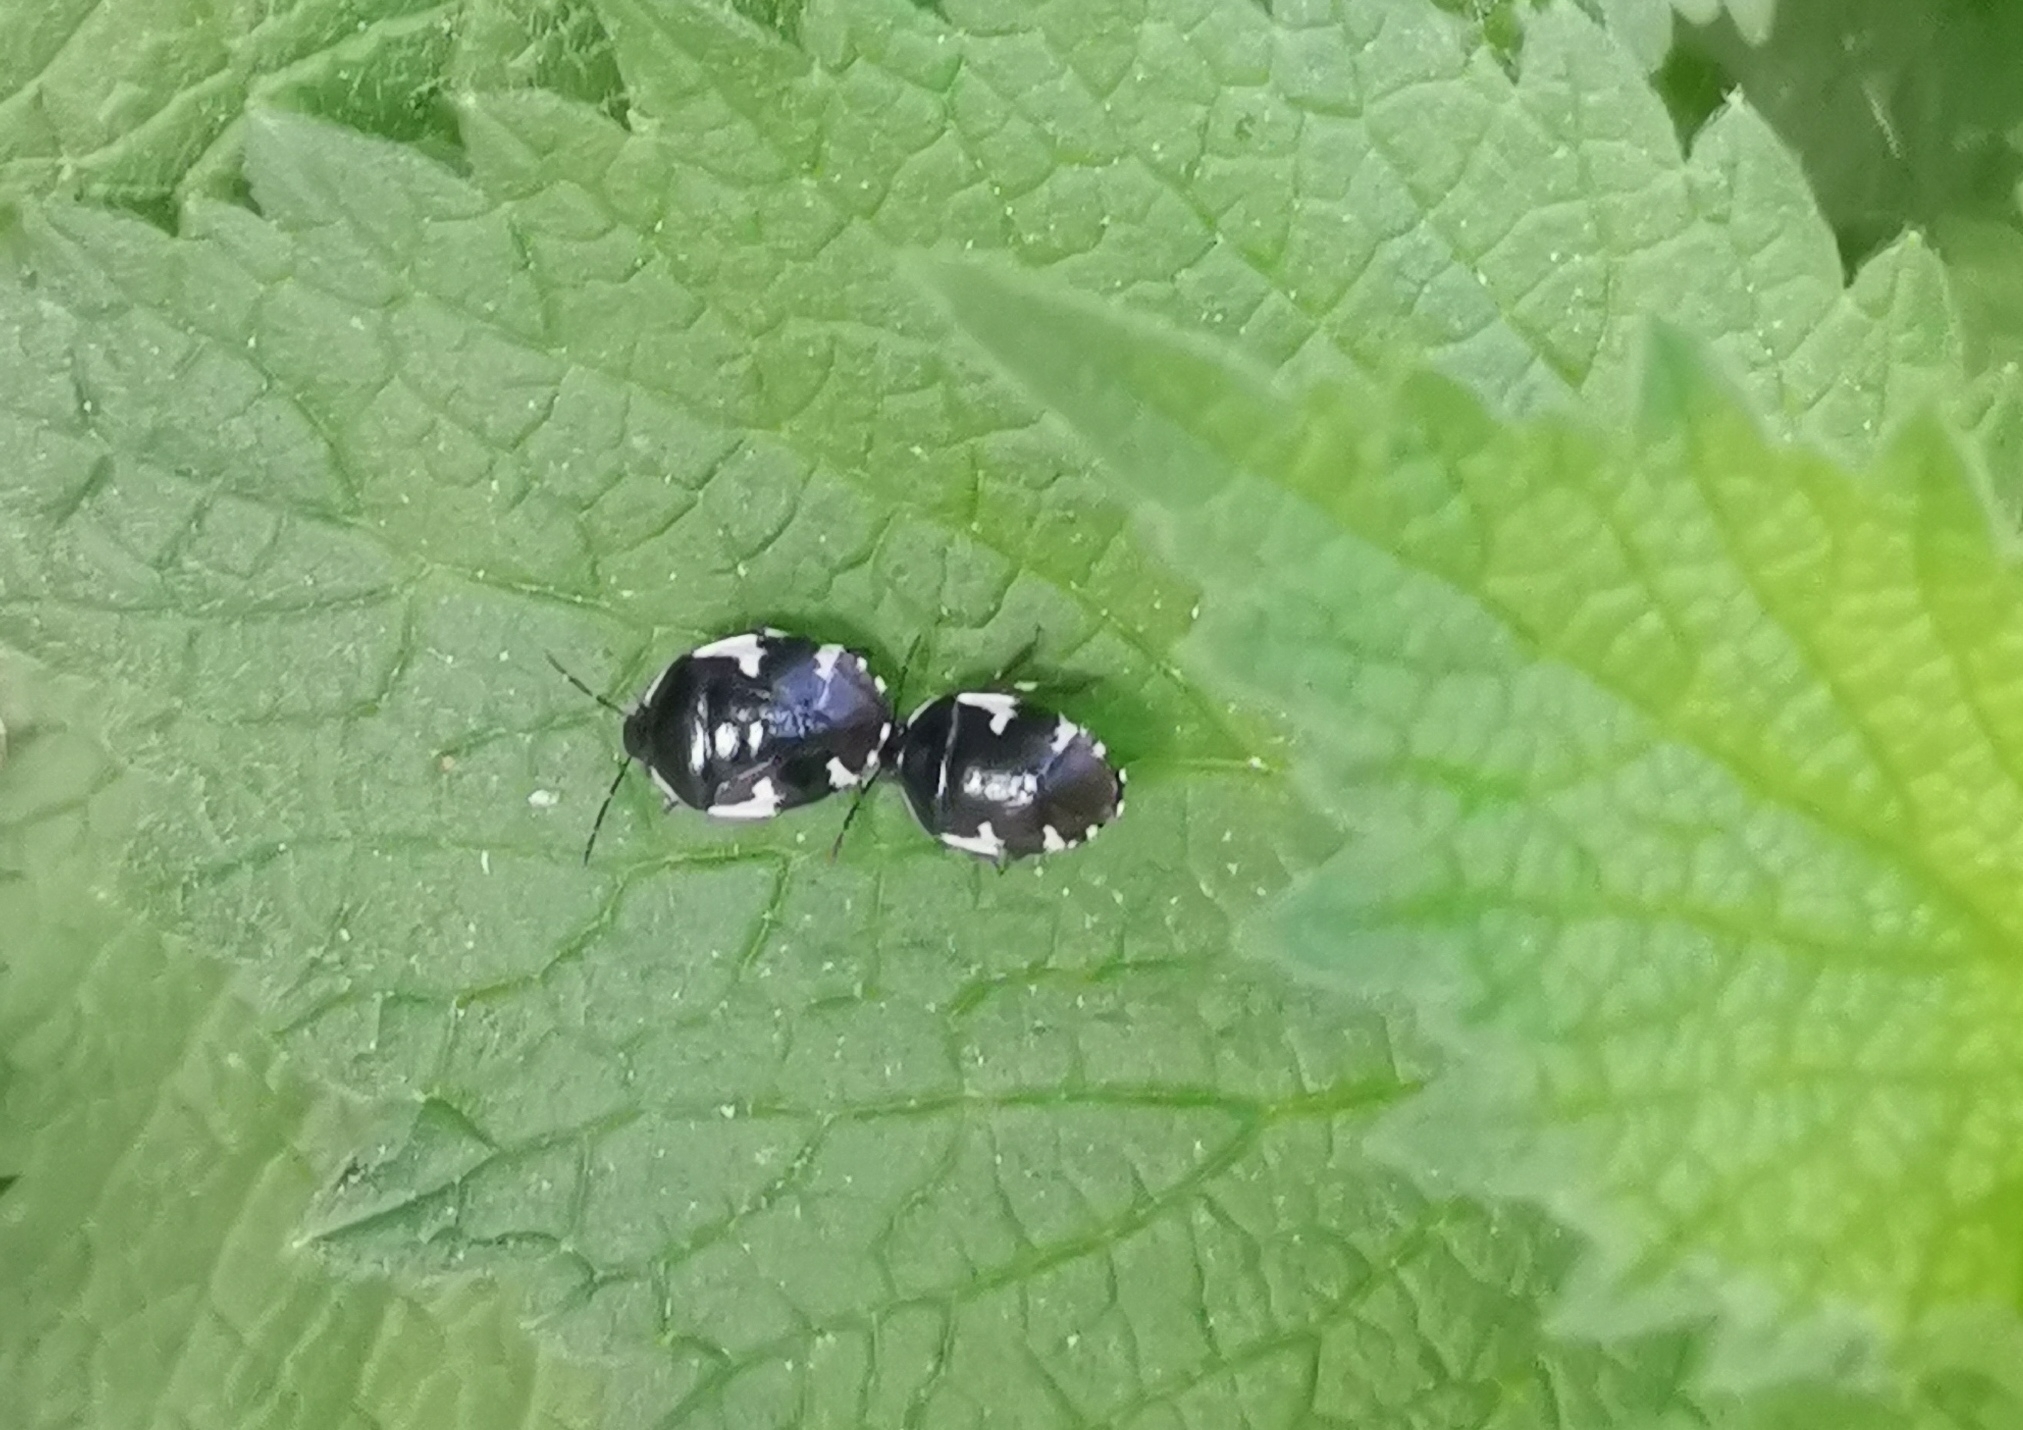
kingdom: Animalia
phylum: Arthropoda
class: Insecta
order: Hemiptera
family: Cydnidae
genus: Tritomegas
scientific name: Tritomegas sexmaculatus
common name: Rambur's pied shieldbug
